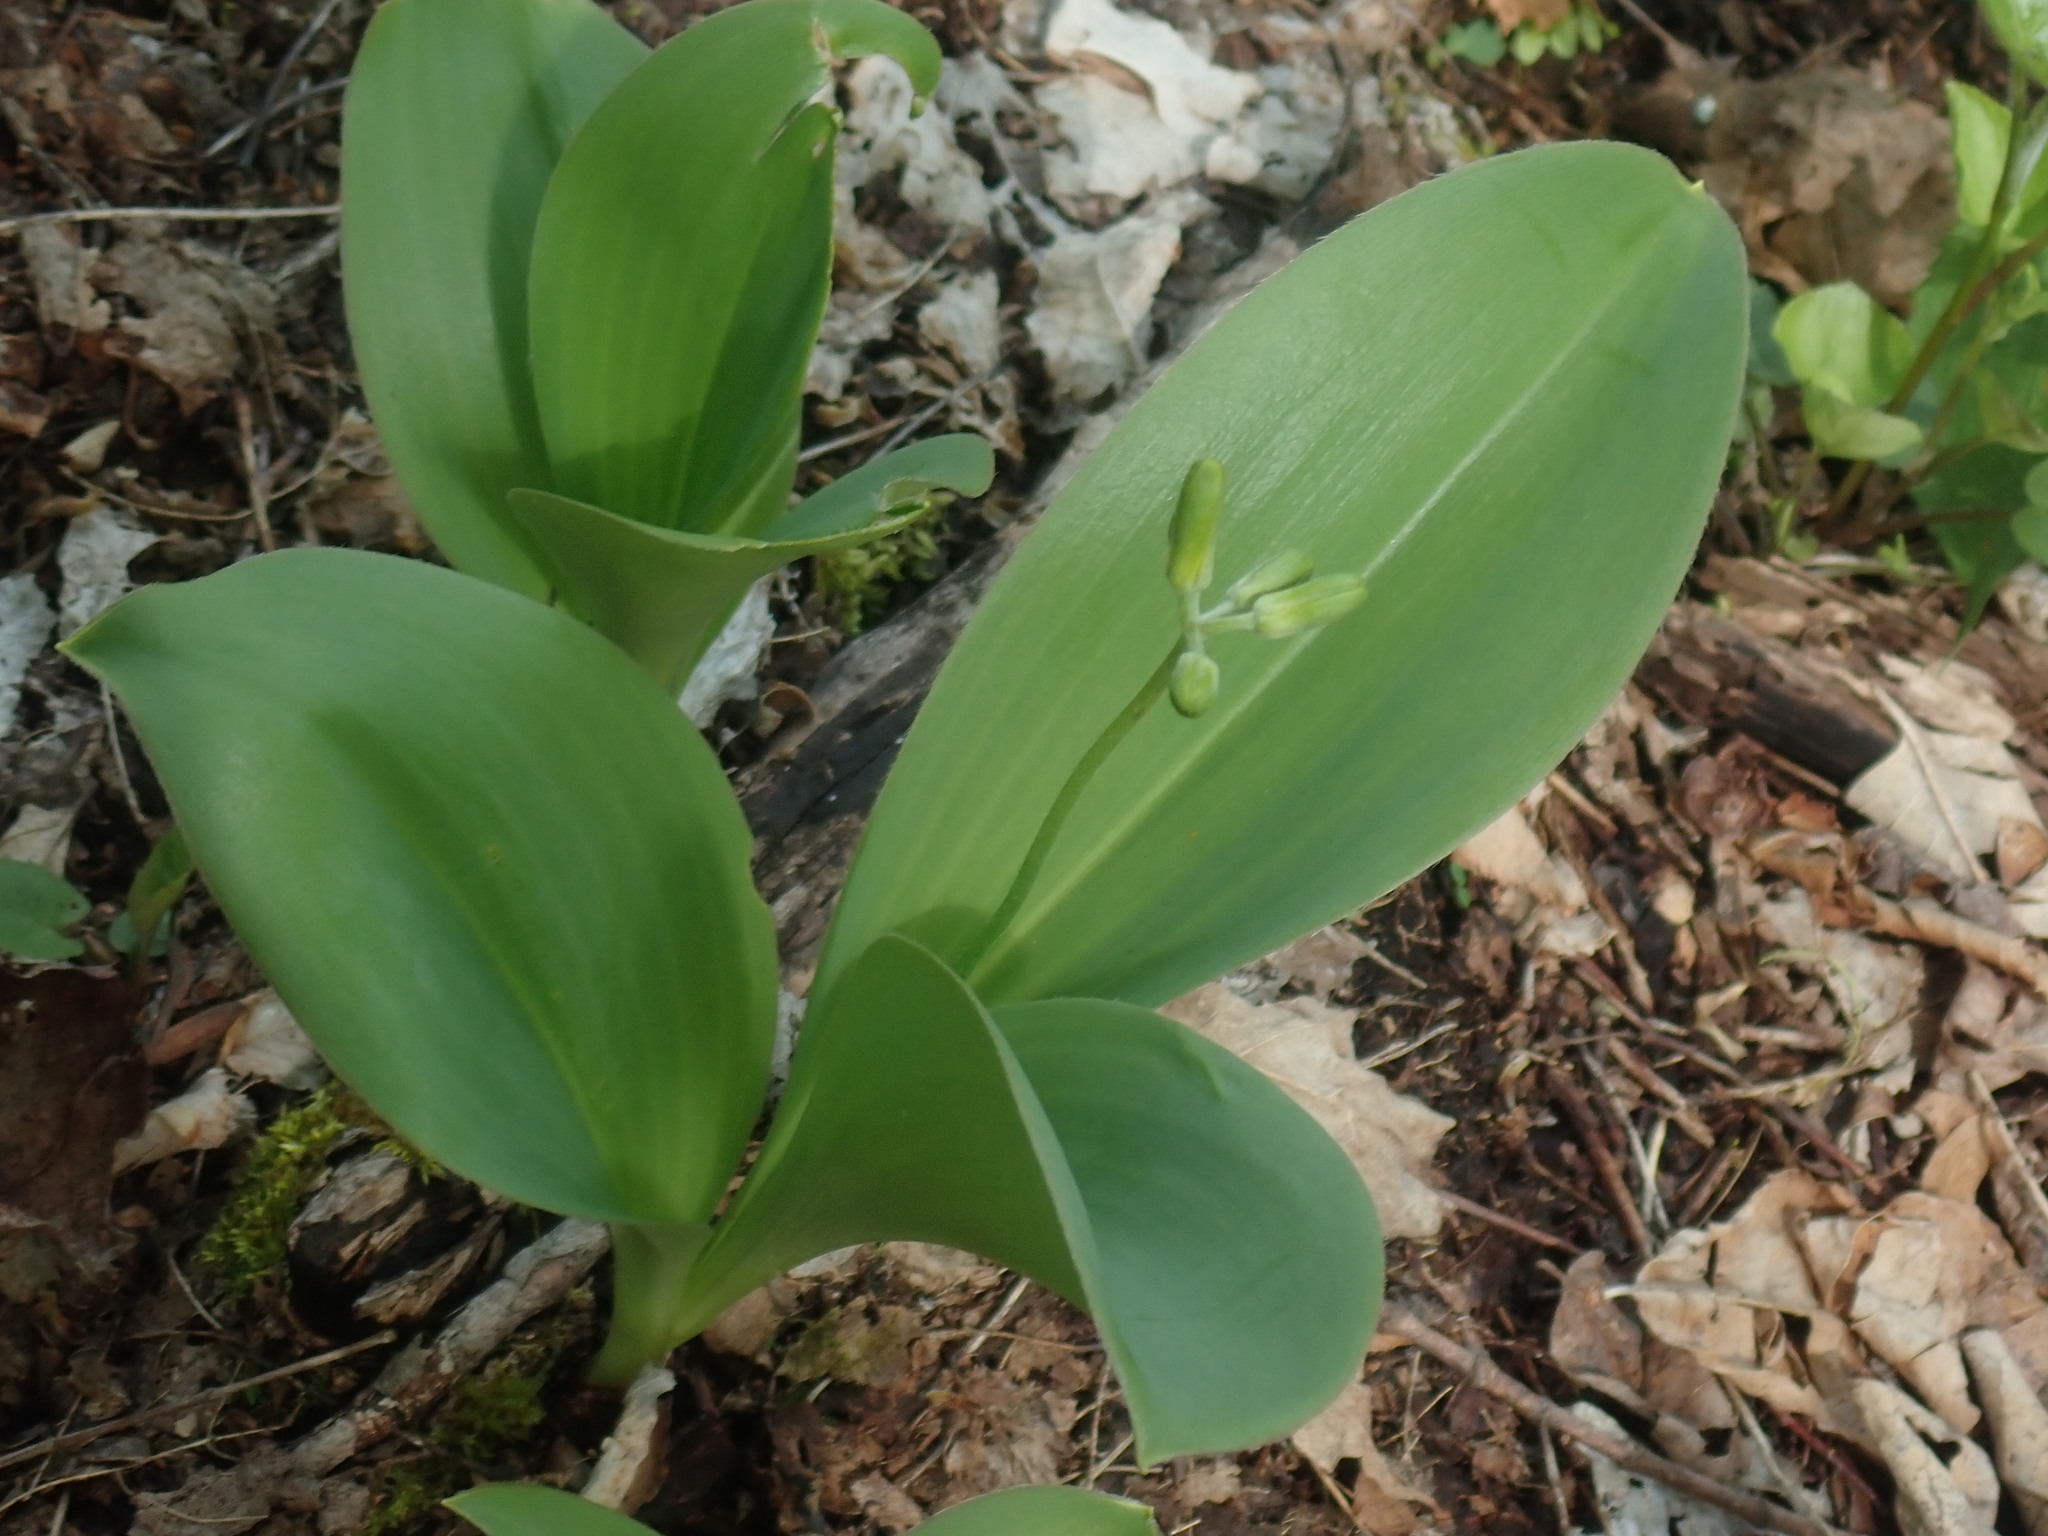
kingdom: Plantae
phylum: Tracheophyta
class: Liliopsida
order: Liliales
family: Liliaceae
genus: Clintonia
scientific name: Clintonia borealis
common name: Yellow clintonia
